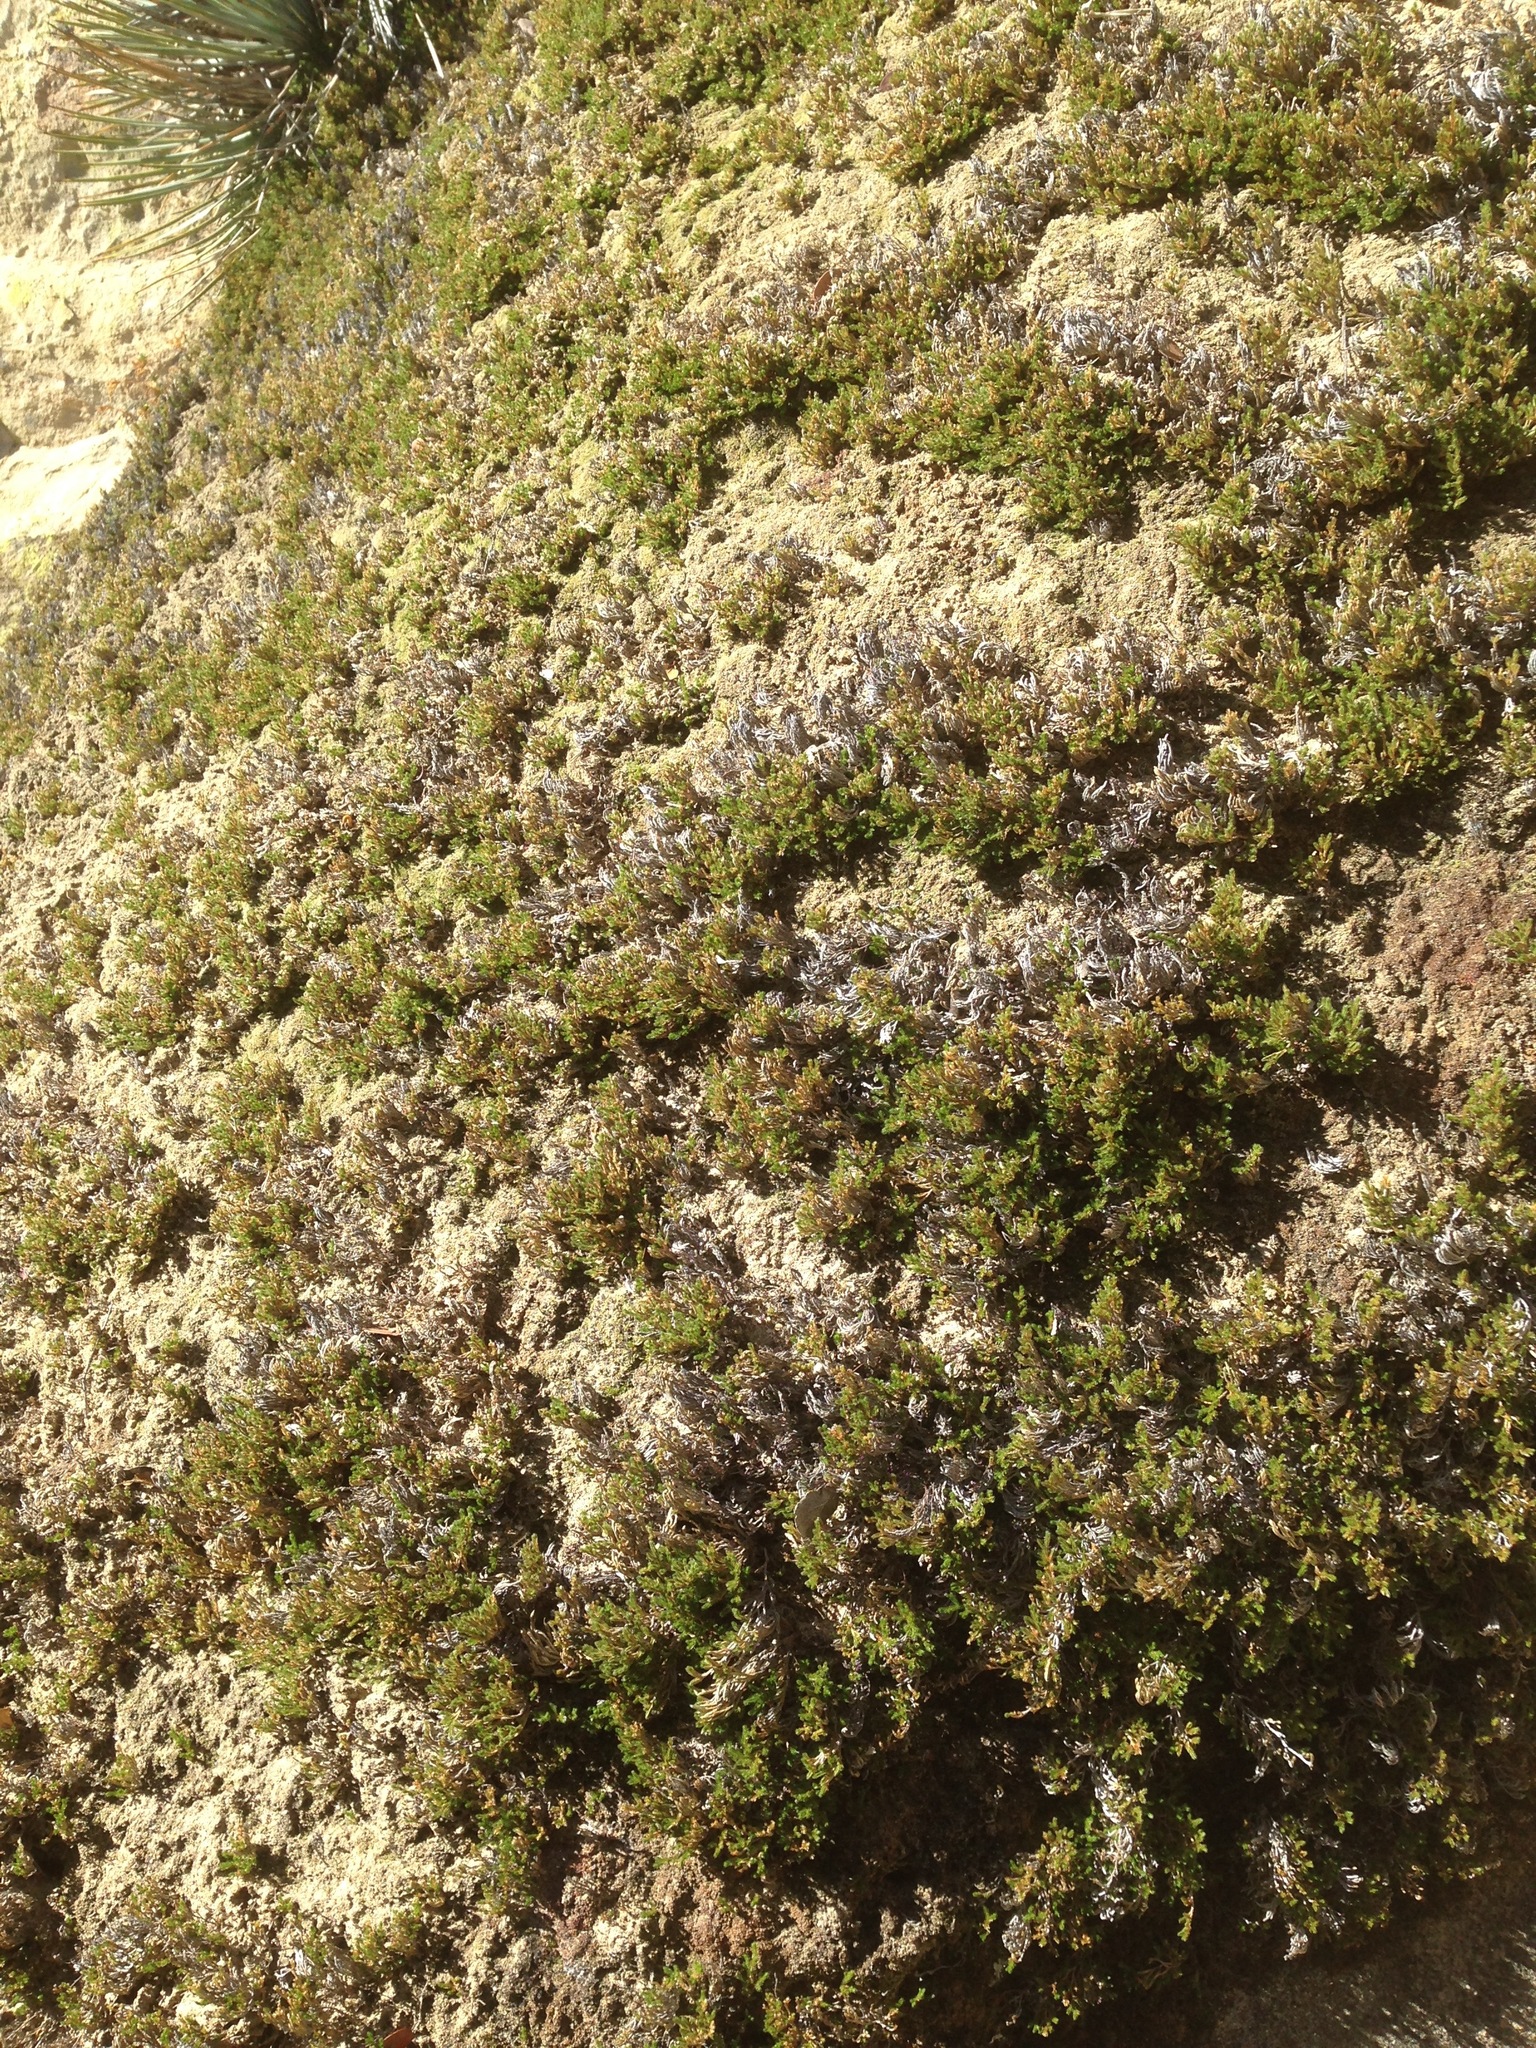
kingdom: Plantae
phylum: Tracheophyta
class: Lycopodiopsida
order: Selaginellales
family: Selaginellaceae
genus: Selaginella
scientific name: Selaginella bigelovii
